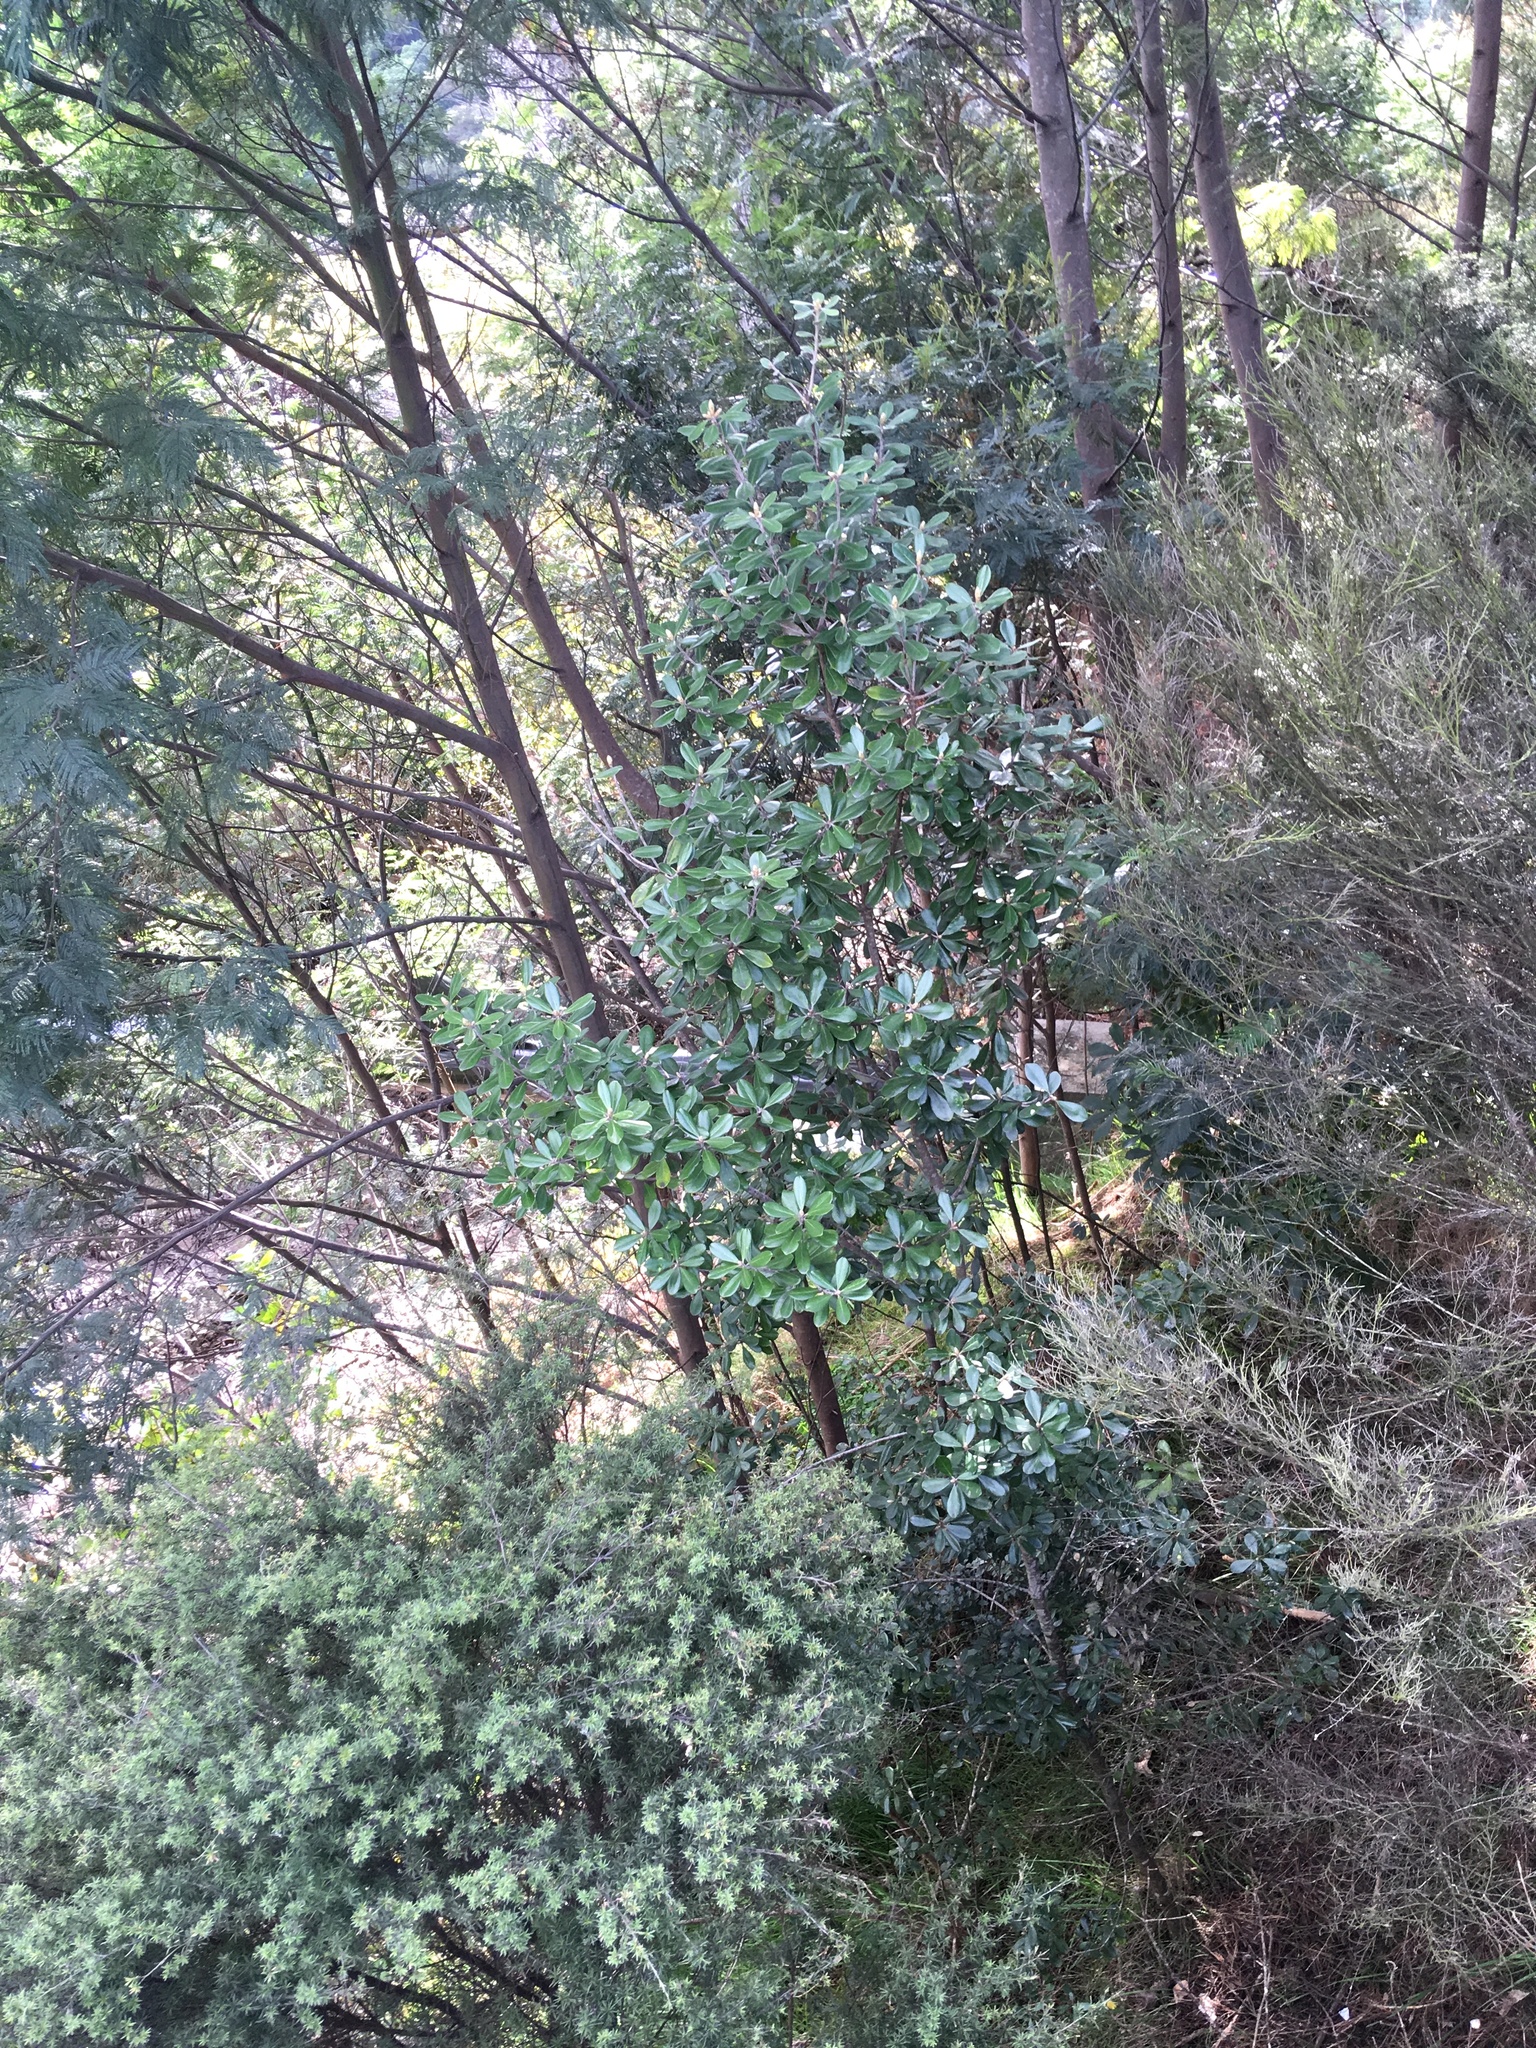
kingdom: Plantae
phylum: Tracheophyta
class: Magnoliopsida
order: Apiales
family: Pittosporaceae
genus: Pittosporum
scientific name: Pittosporum crassifolium
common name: Karo
